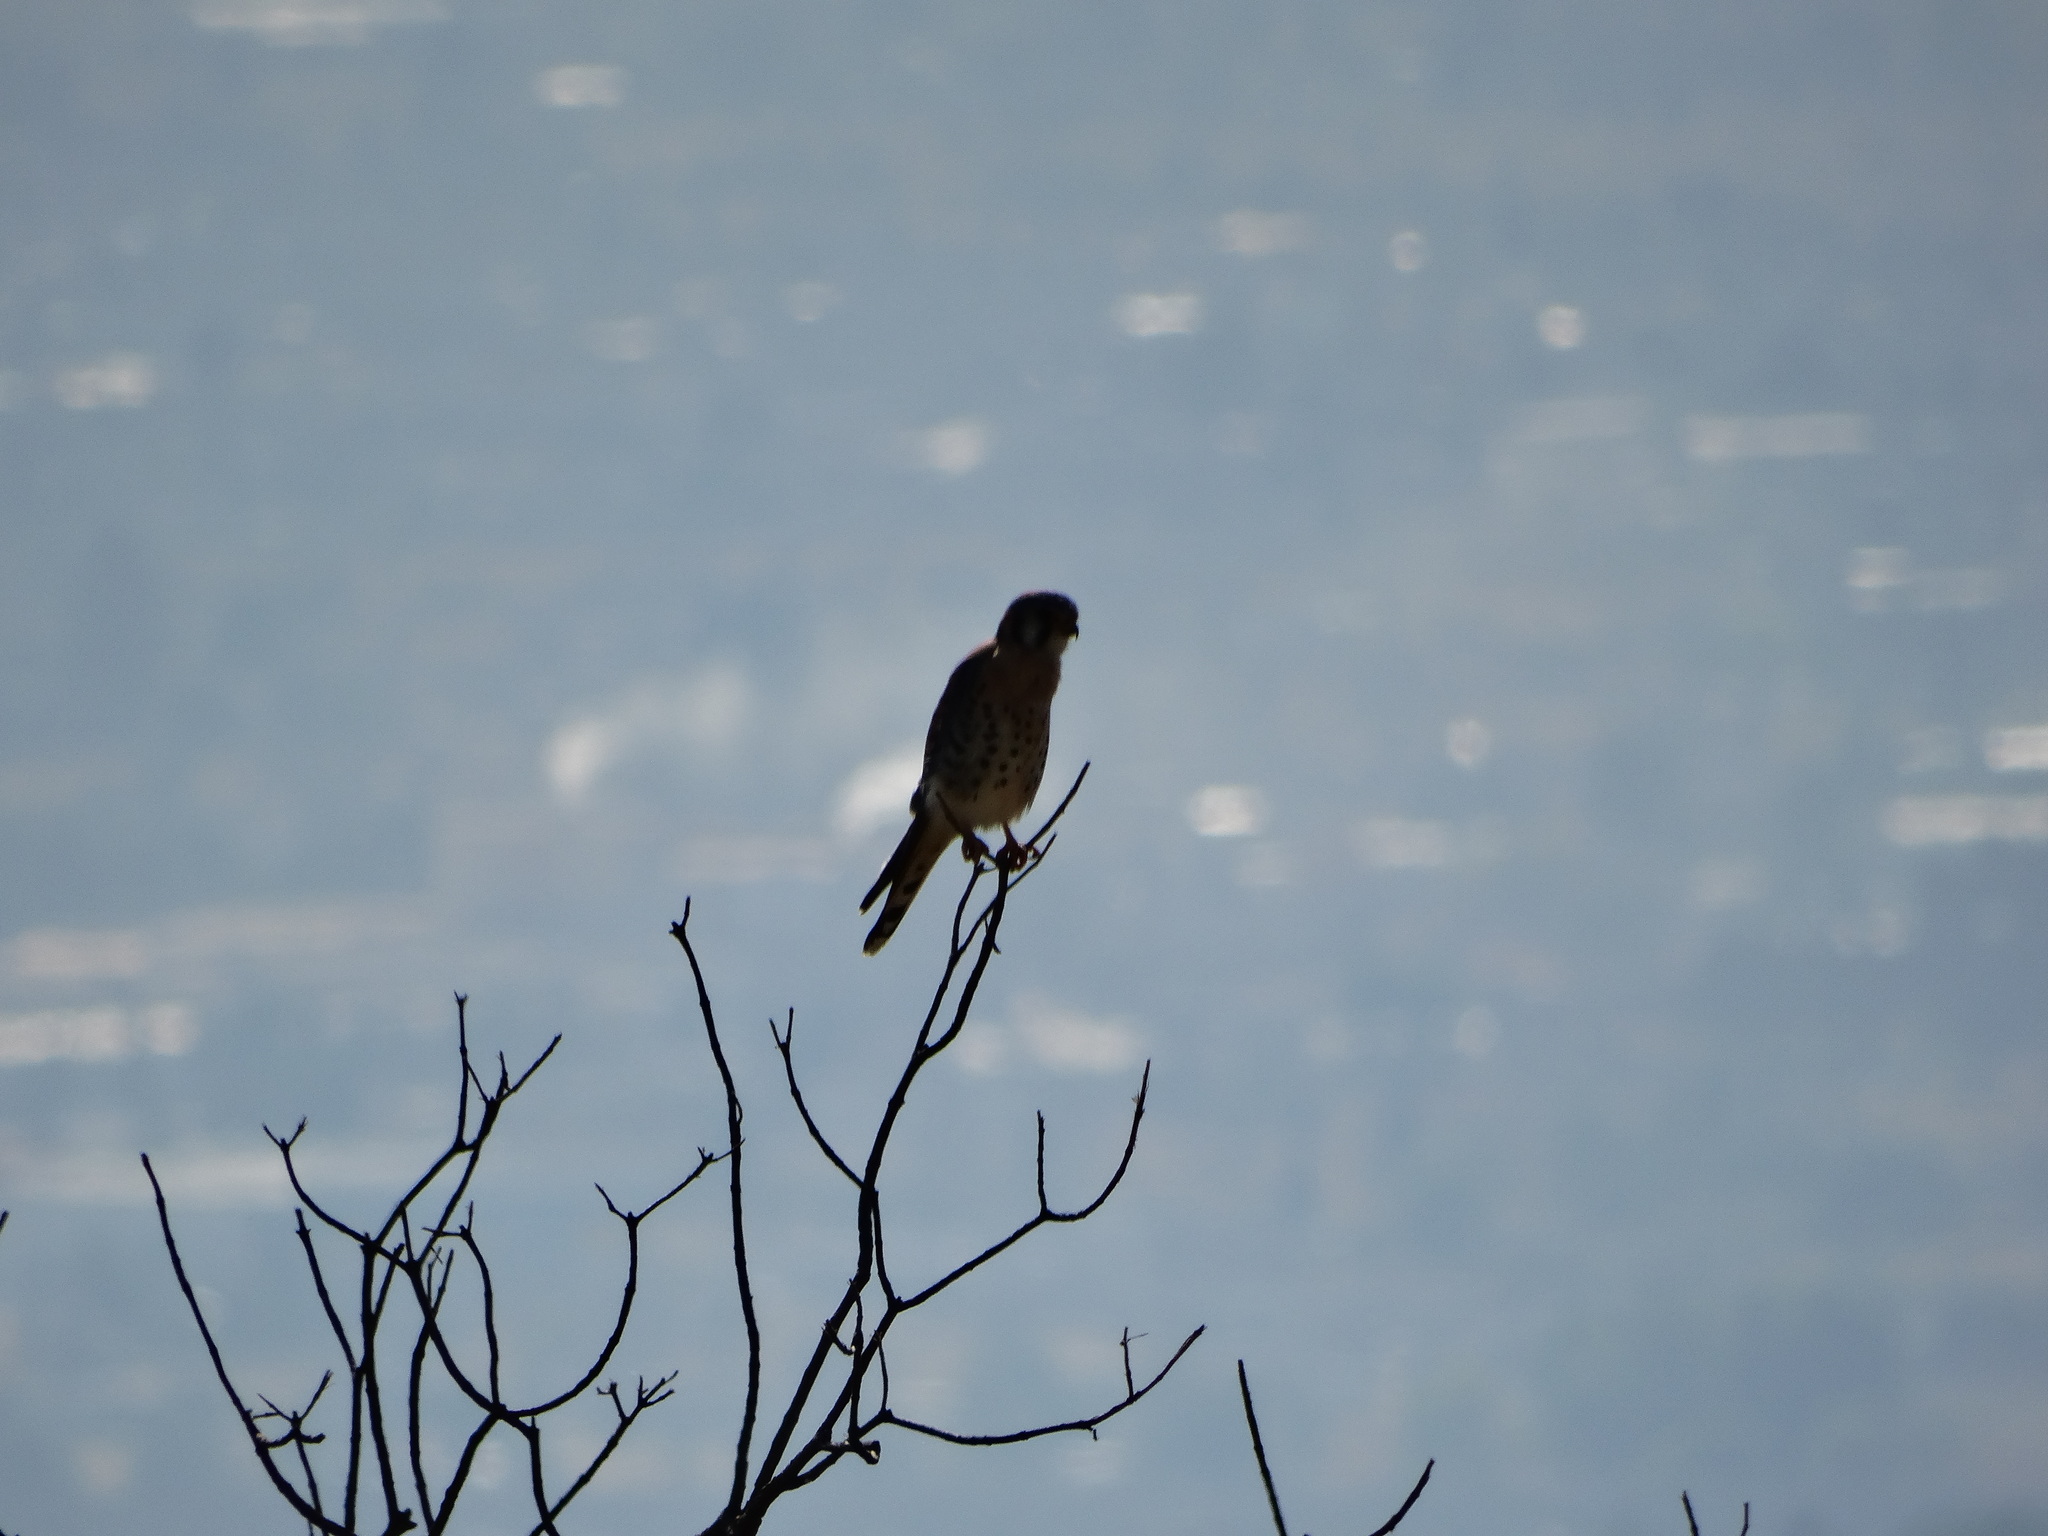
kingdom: Animalia
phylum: Chordata
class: Aves
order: Falconiformes
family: Falconidae
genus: Falco
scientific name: Falco sparverius
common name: American kestrel
